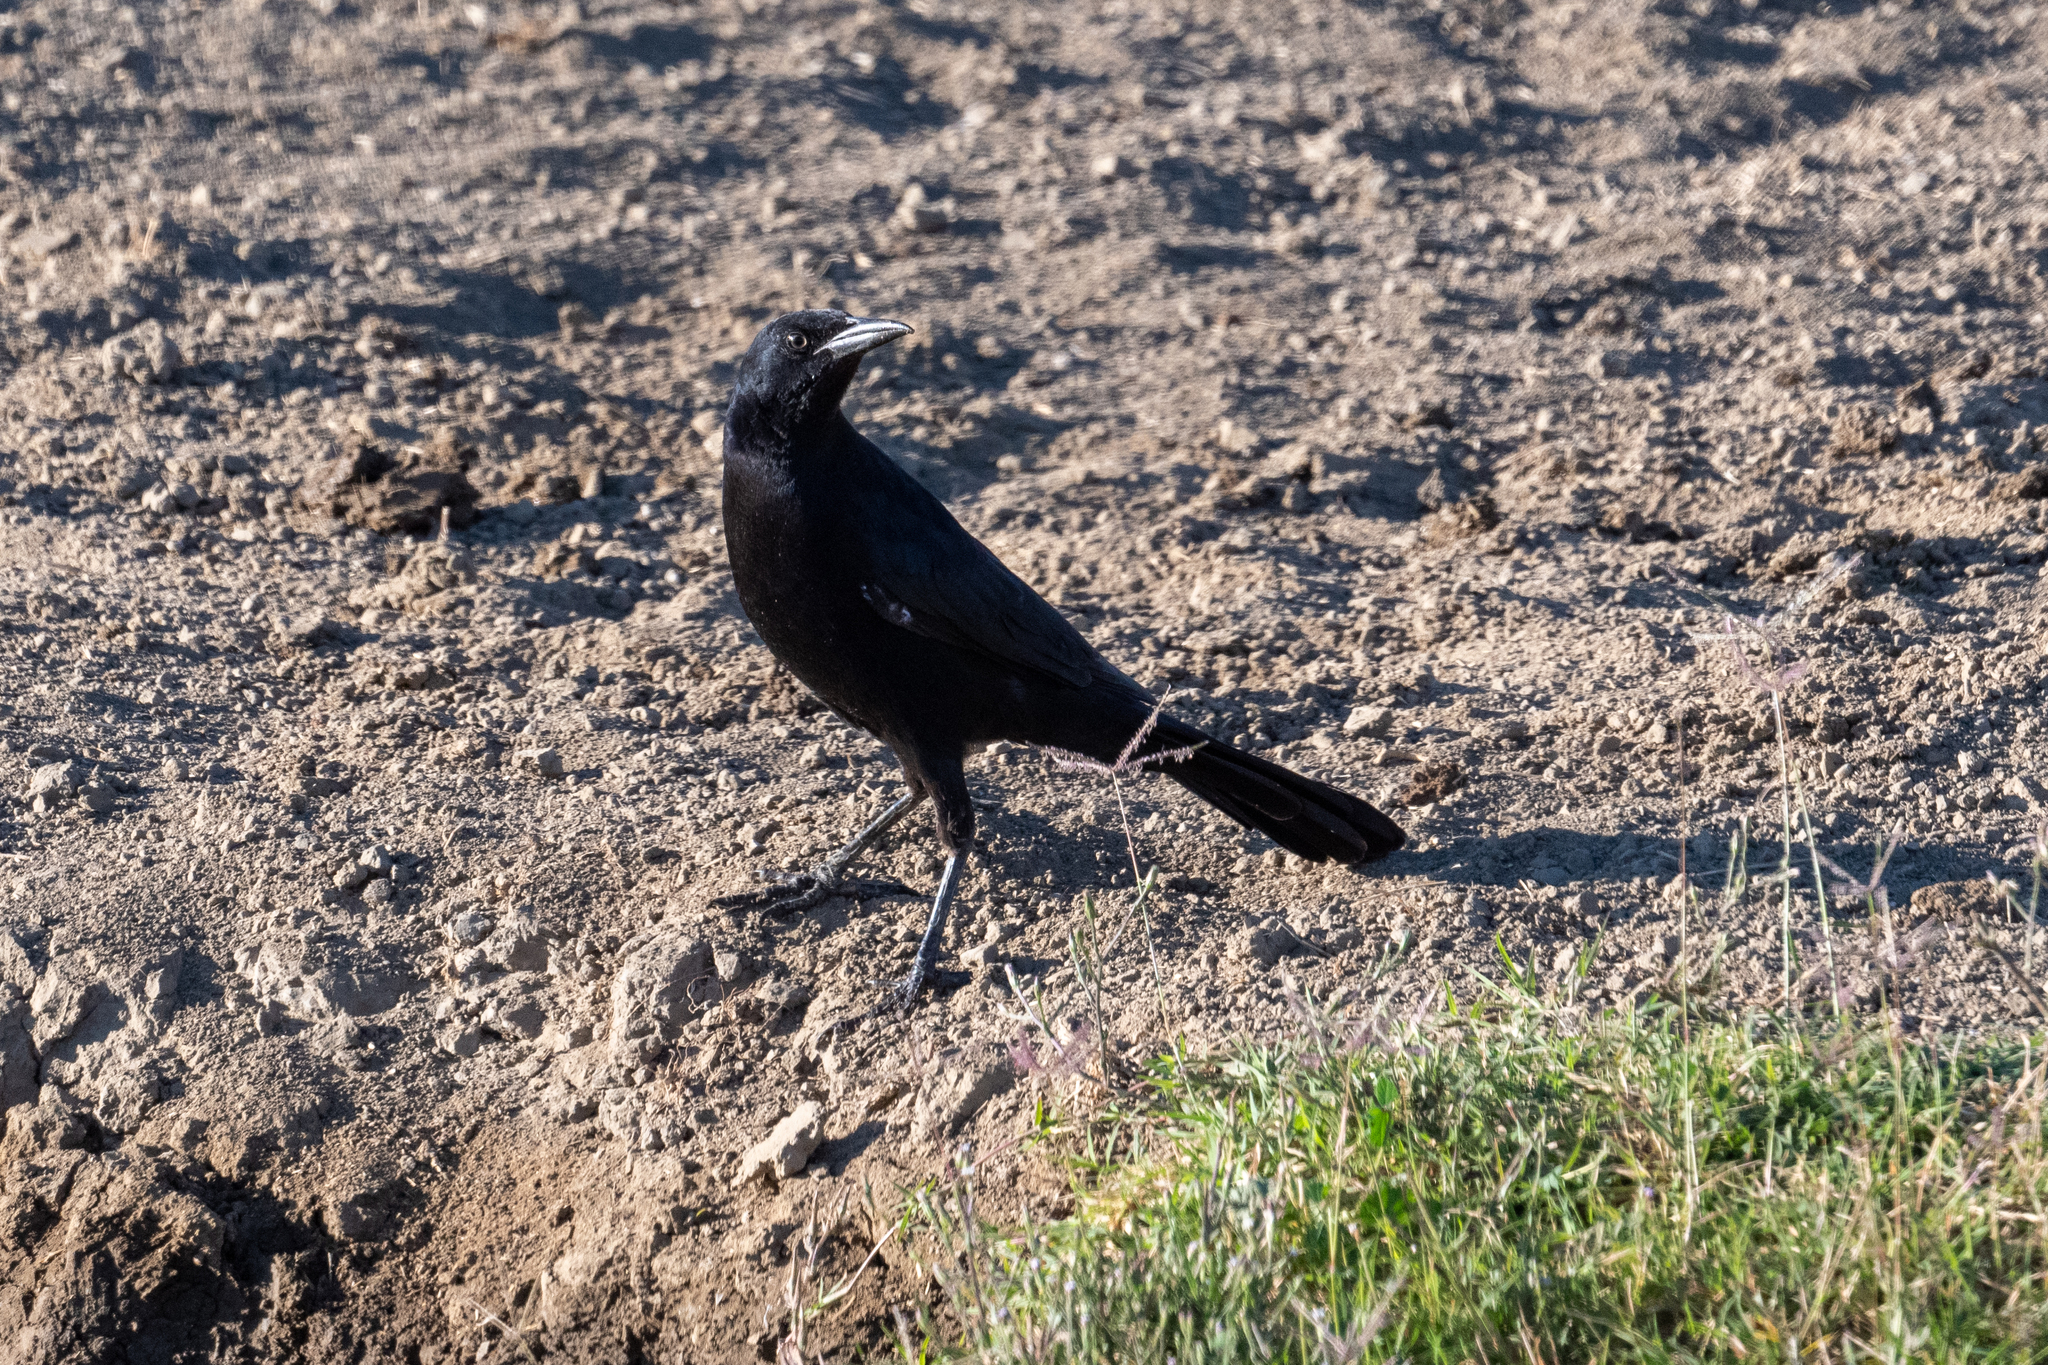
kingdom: Animalia
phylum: Chordata
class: Aves
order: Passeriformes
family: Corvidae
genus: Corvus
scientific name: Corvus brachyrhynchos
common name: American crow
